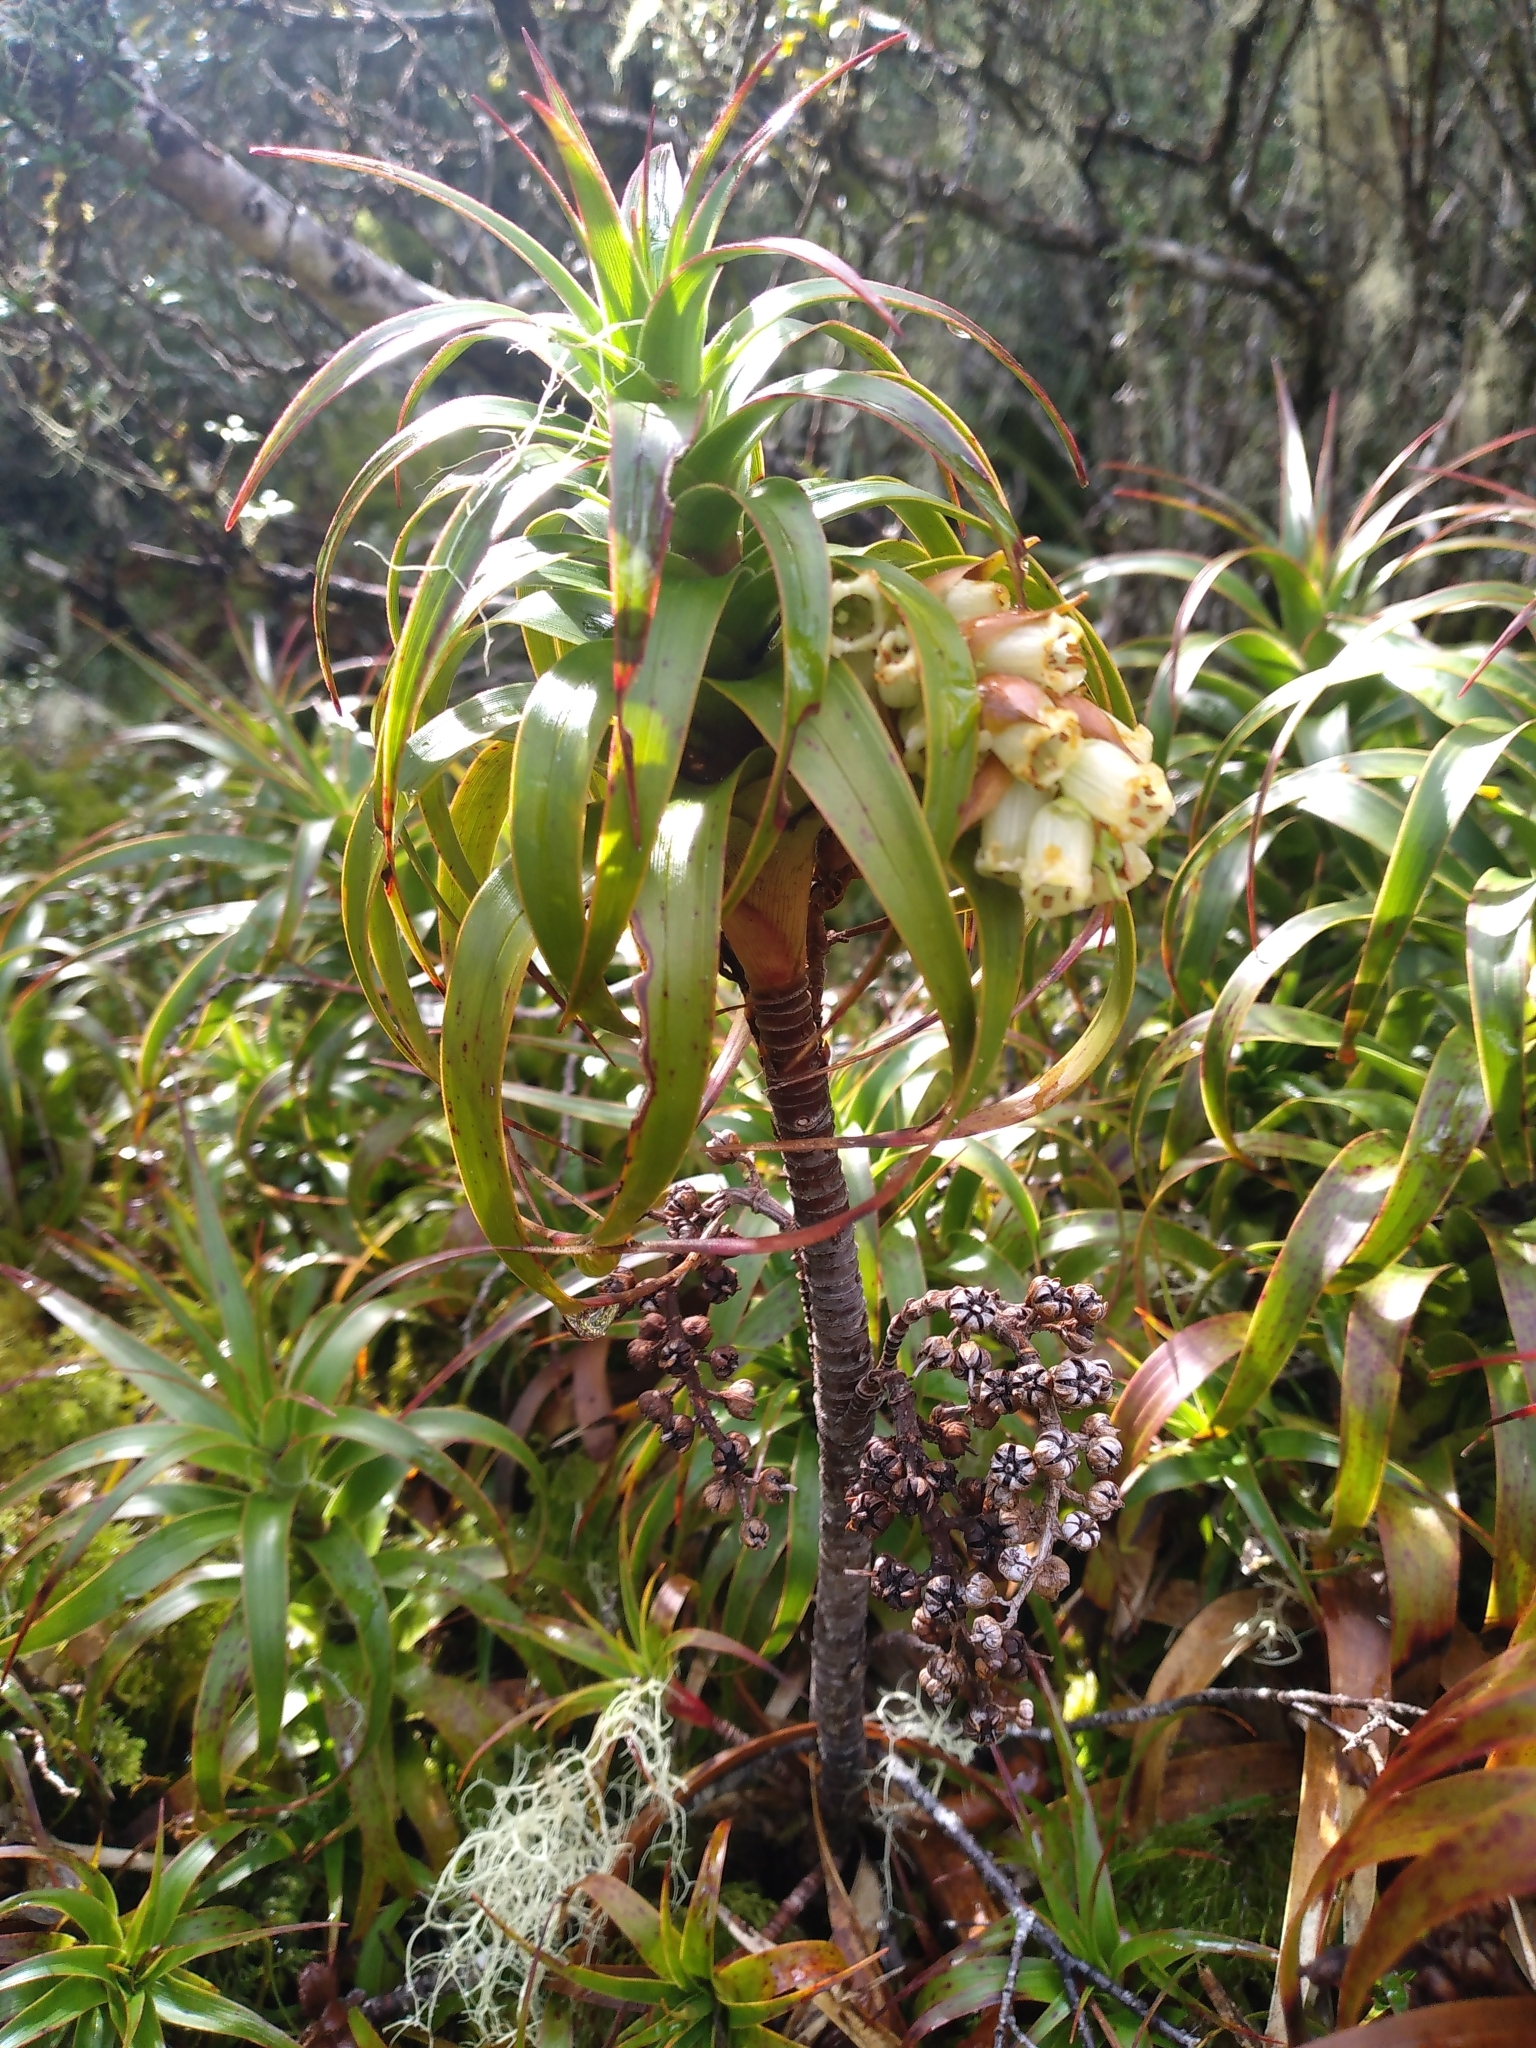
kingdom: Plantae
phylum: Tracheophyta
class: Magnoliopsida
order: Ericales
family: Ericaceae
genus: Dracophyllum
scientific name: Dracophyllum menziesii
